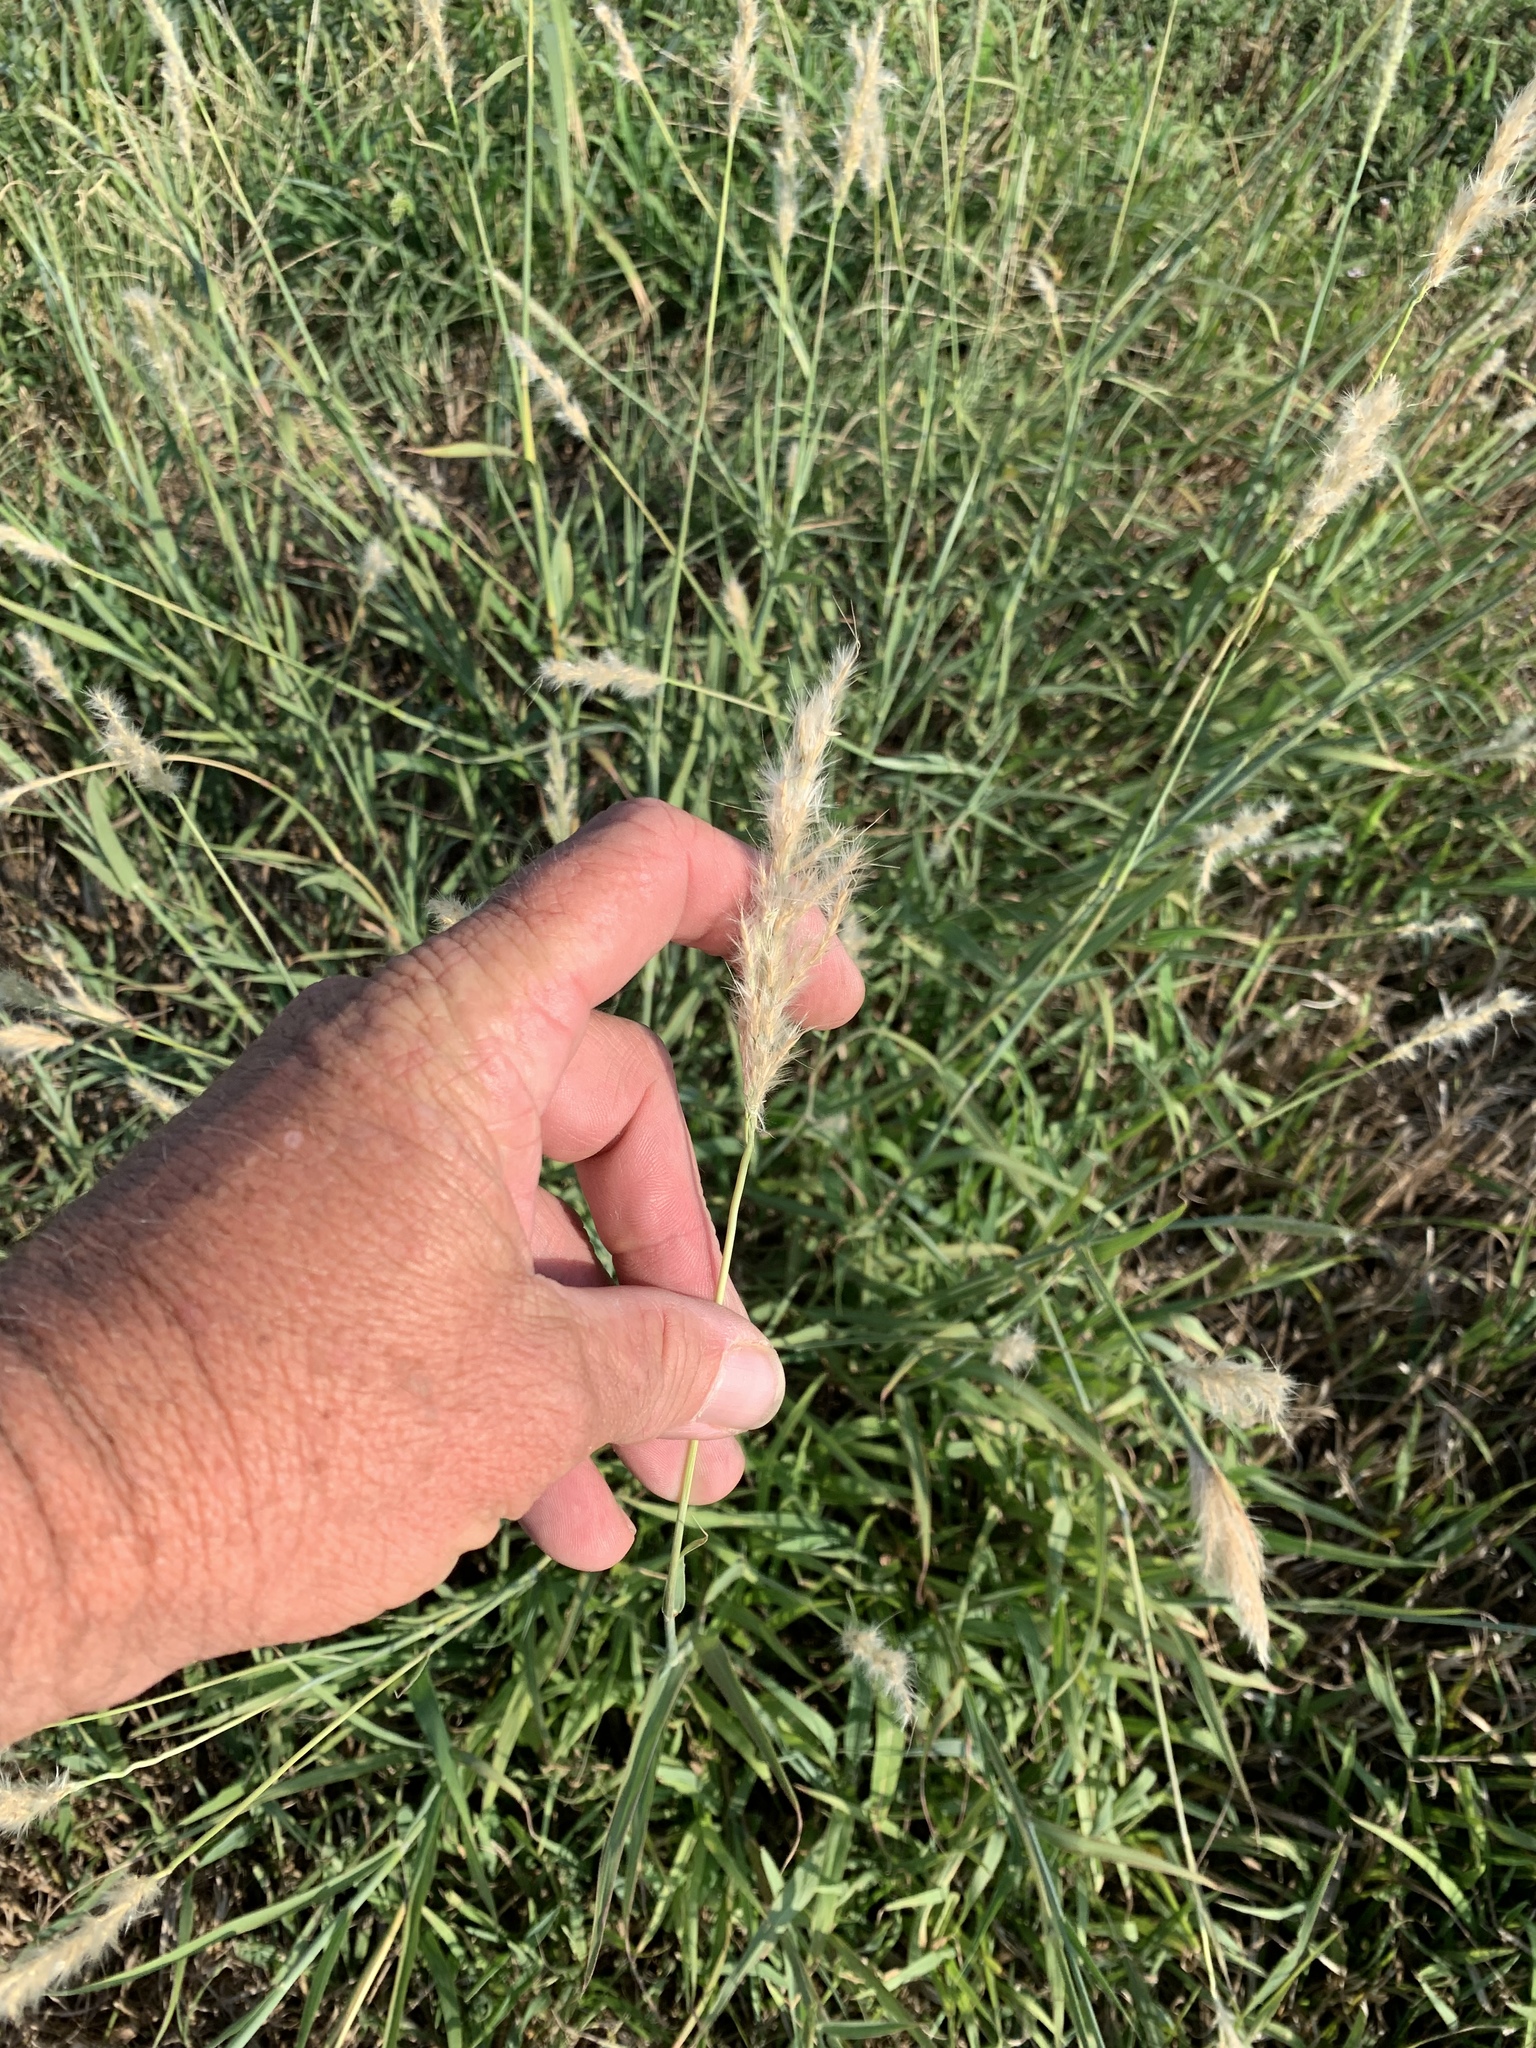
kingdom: Plantae
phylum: Tracheophyta
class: Liliopsida
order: Poales
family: Poaceae
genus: Bothriochloa
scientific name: Bothriochloa torreyana
